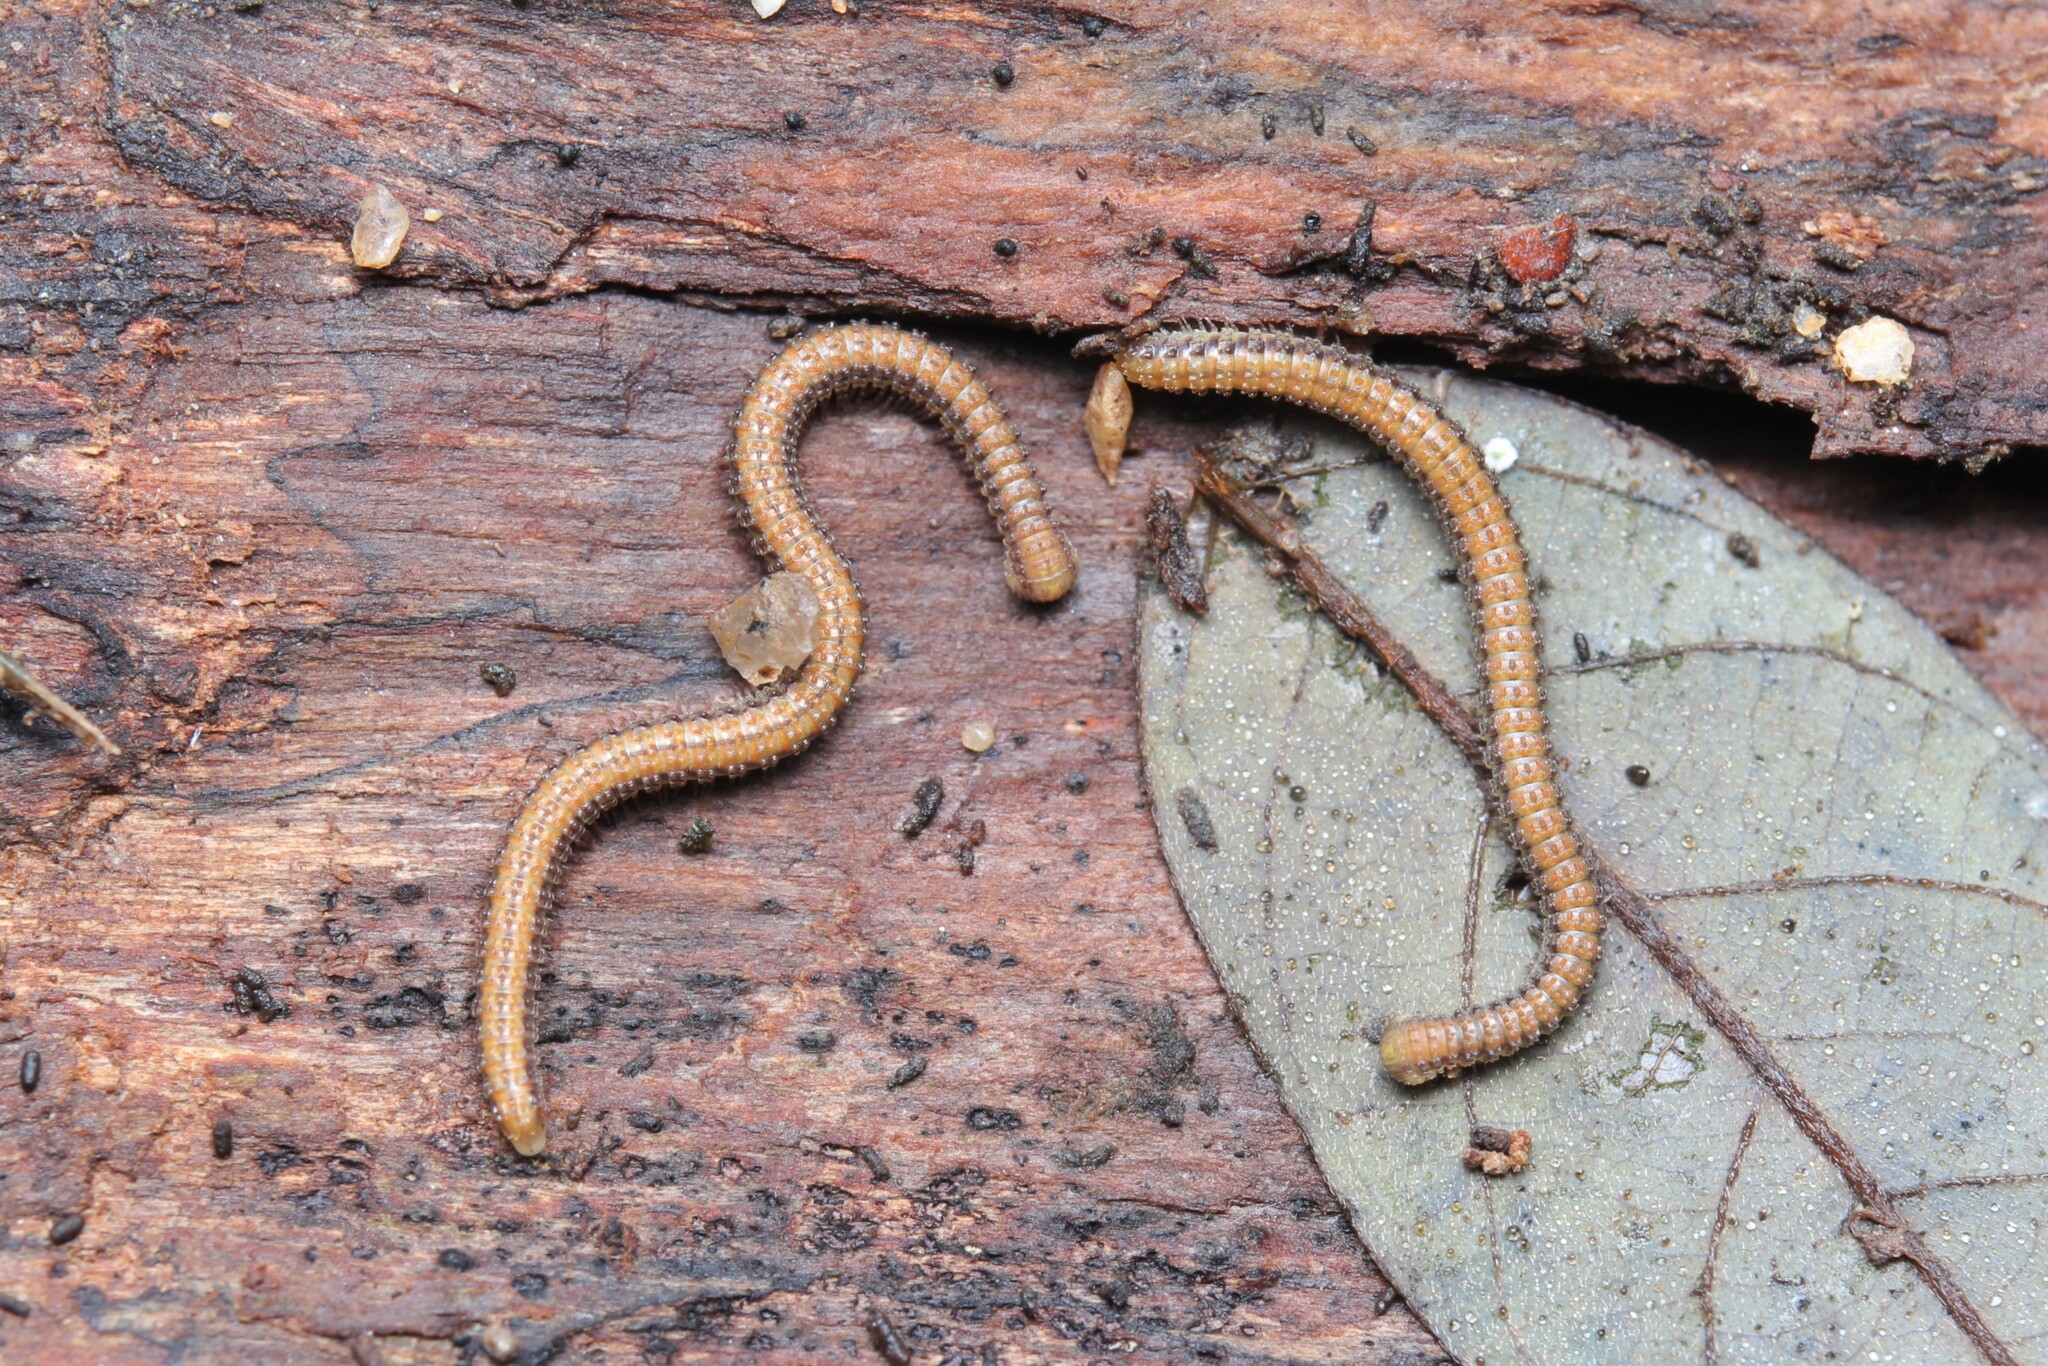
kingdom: Animalia
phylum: Arthropoda
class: Diplopoda
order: Spirostreptida
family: Cambalopsidae
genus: Glyphiulus
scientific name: Glyphiulus granulatus
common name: Millipede
